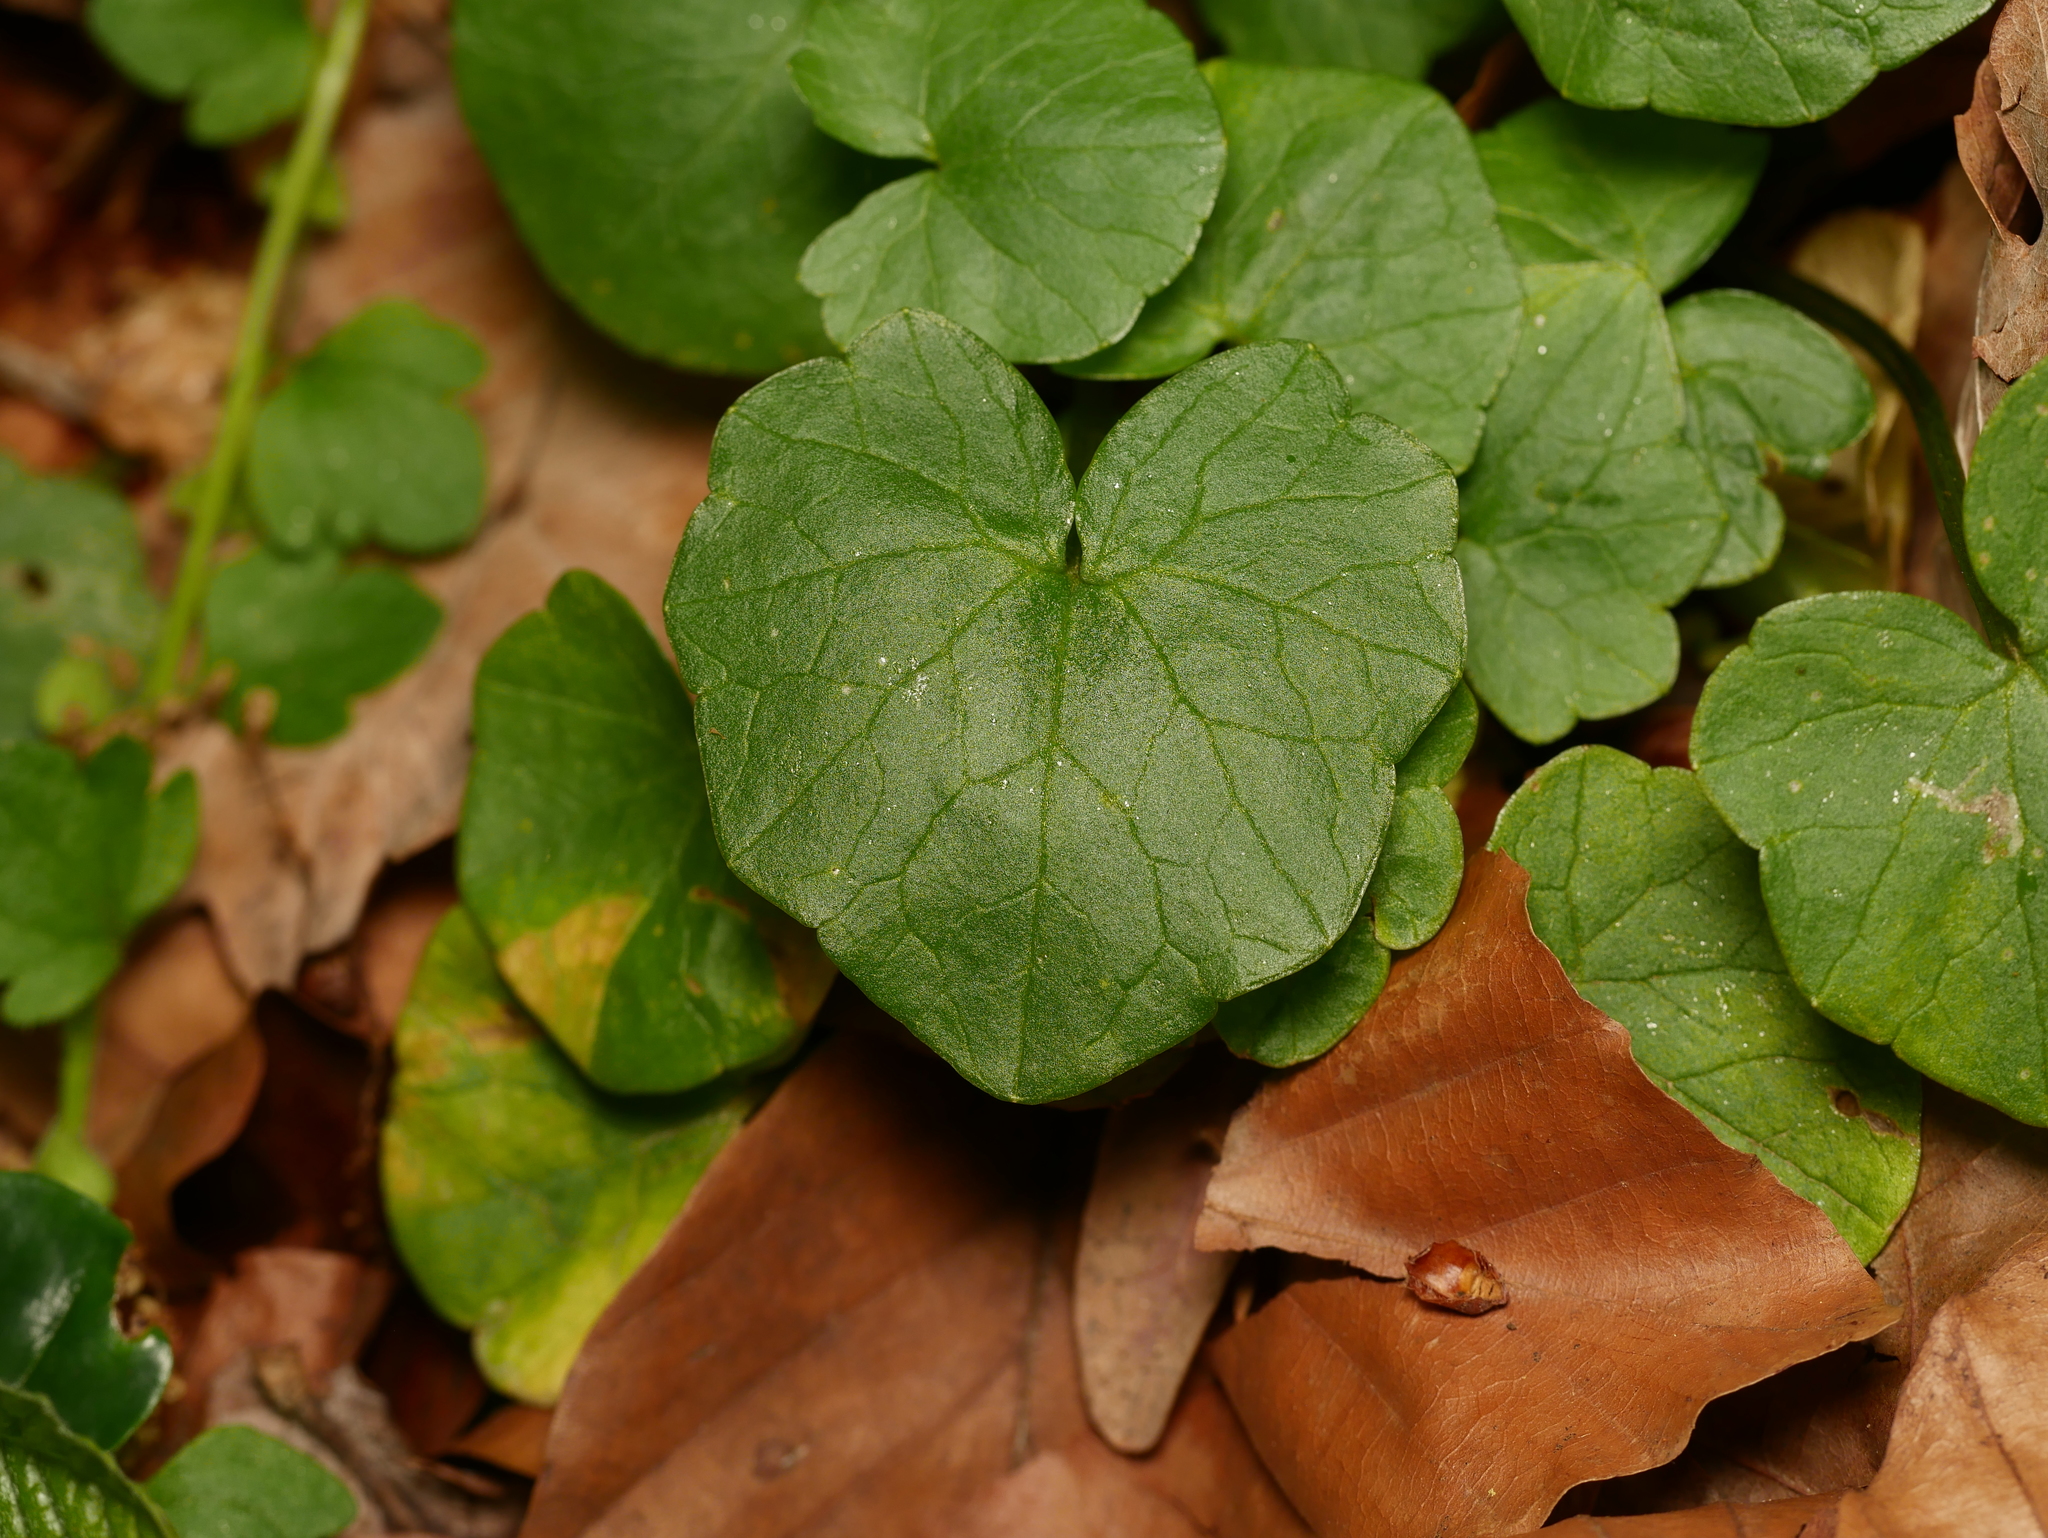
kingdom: Plantae
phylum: Tracheophyta
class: Magnoliopsida
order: Ranunculales
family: Ranunculaceae
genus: Ficaria
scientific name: Ficaria verna
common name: Lesser celandine
